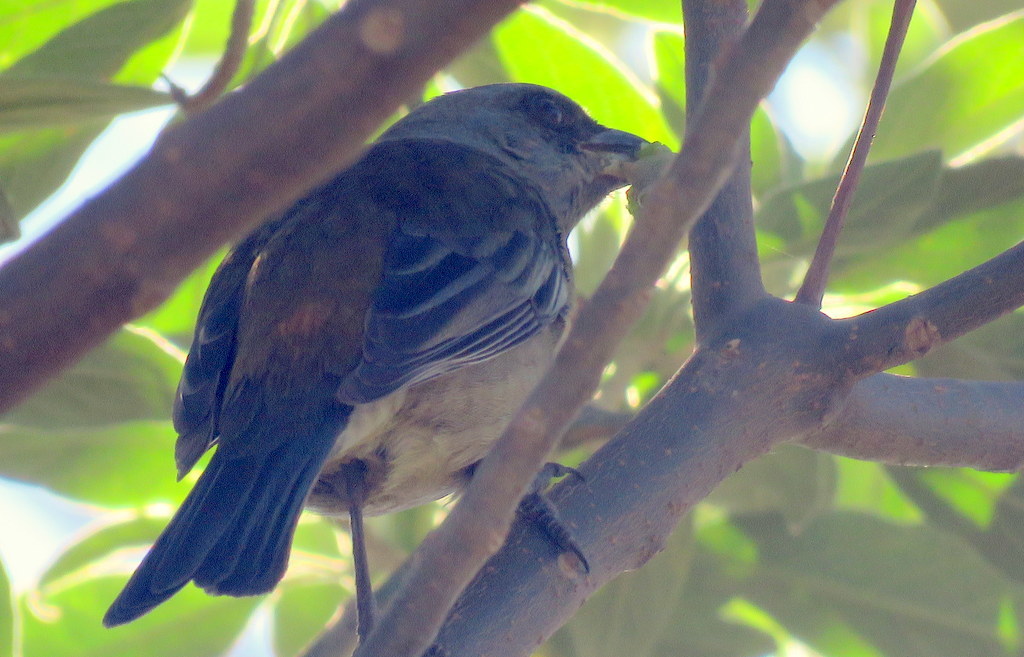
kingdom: Animalia
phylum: Chordata
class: Aves
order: Passeriformes
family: Thraupidae
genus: Rauenia
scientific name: Rauenia bonariensis
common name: Blue-and-yellow tanager
